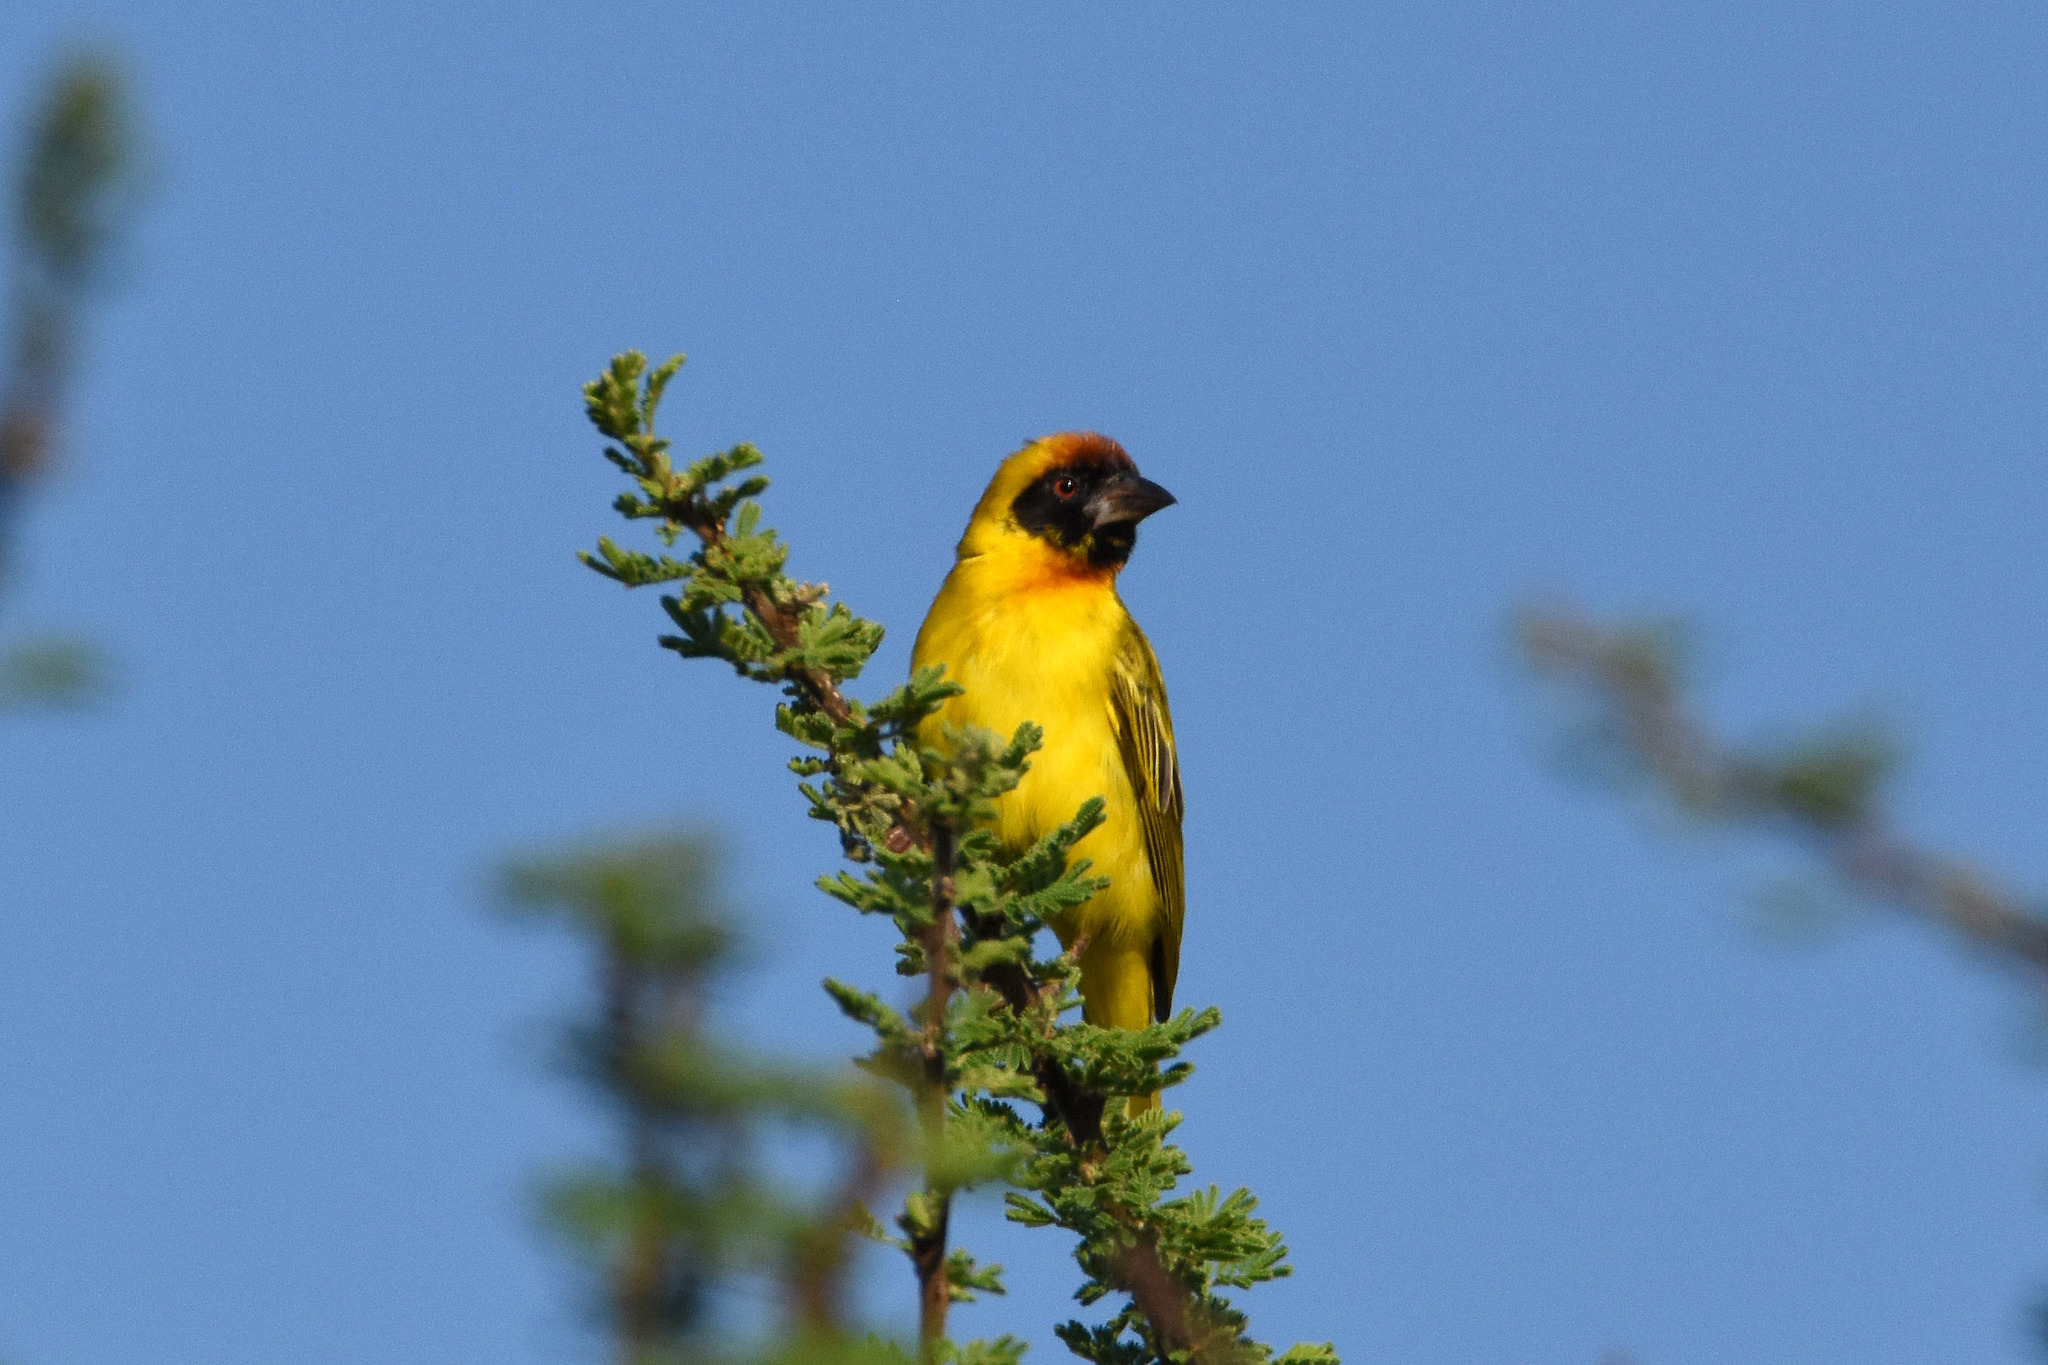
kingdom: Animalia
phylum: Chordata
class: Aves
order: Passeriformes
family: Ploceidae
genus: Ploceus
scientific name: Ploceus vitellinus
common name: Vitelline masked weaver
